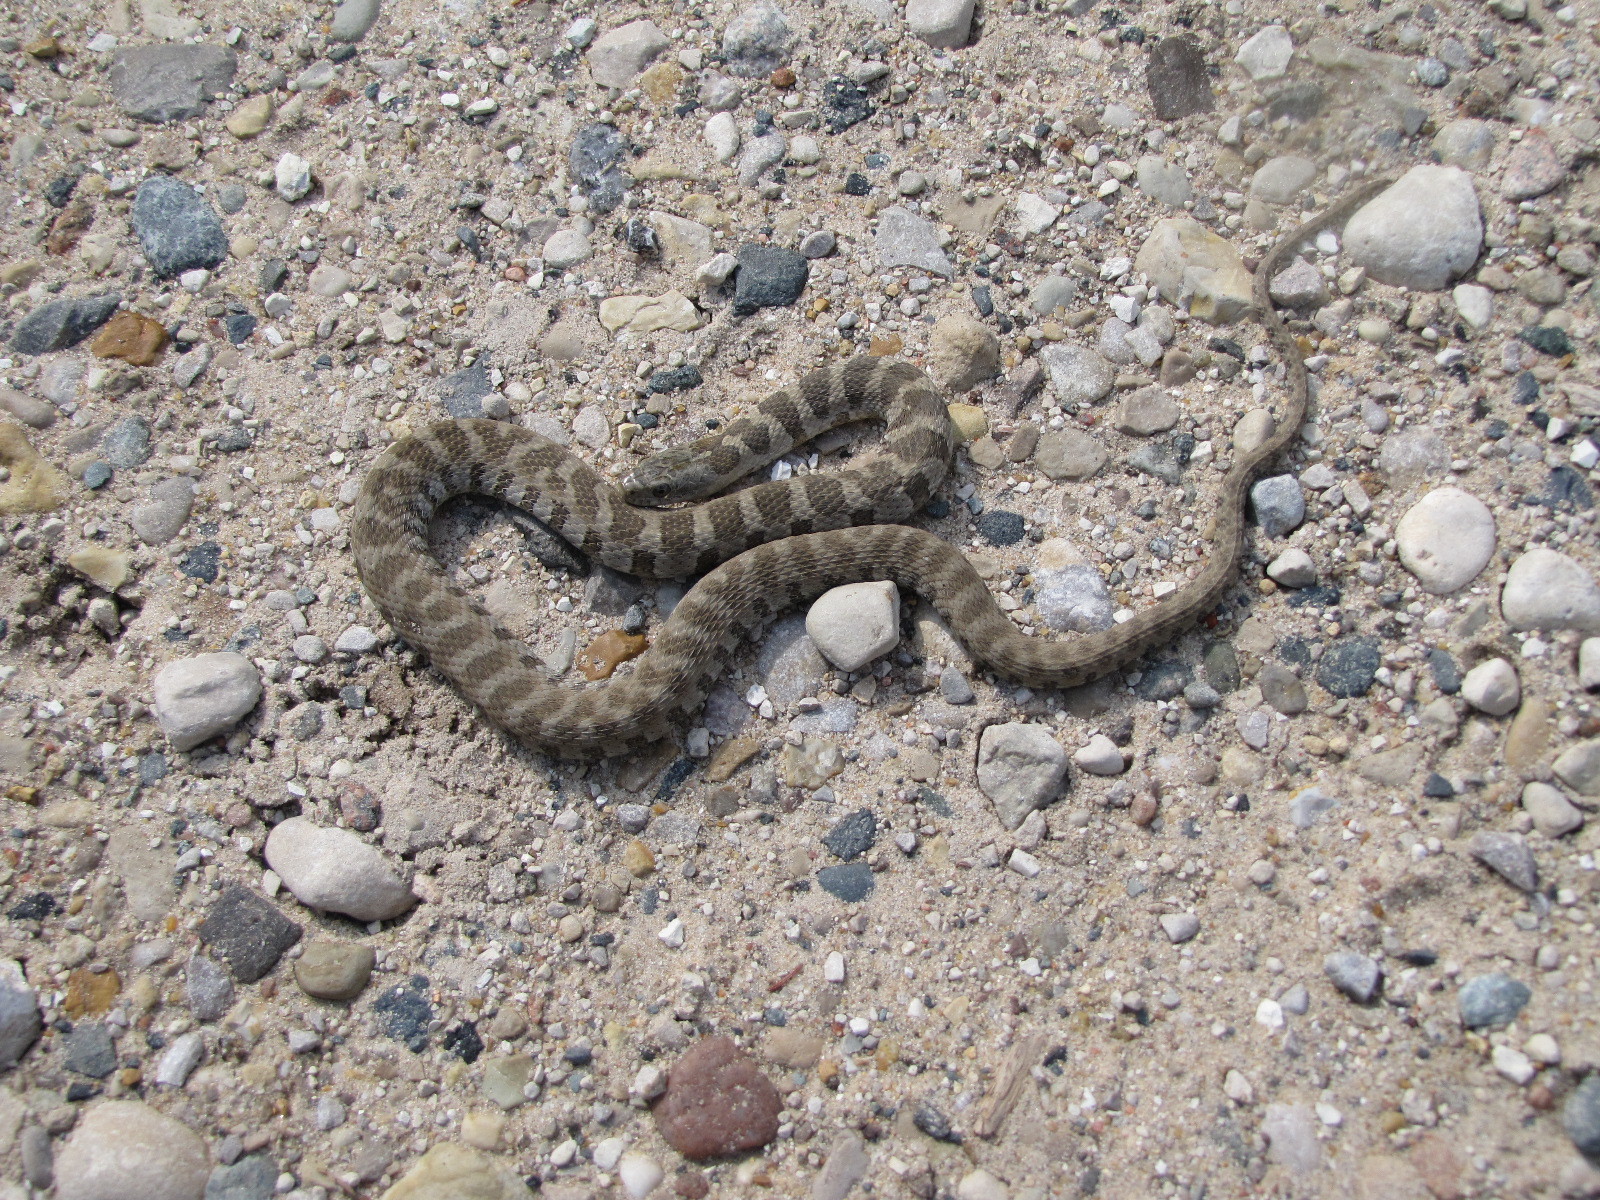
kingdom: Animalia
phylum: Chordata
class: Squamata
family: Colubridae
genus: Nerodia
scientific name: Nerodia sipedon
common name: Northern water snake
